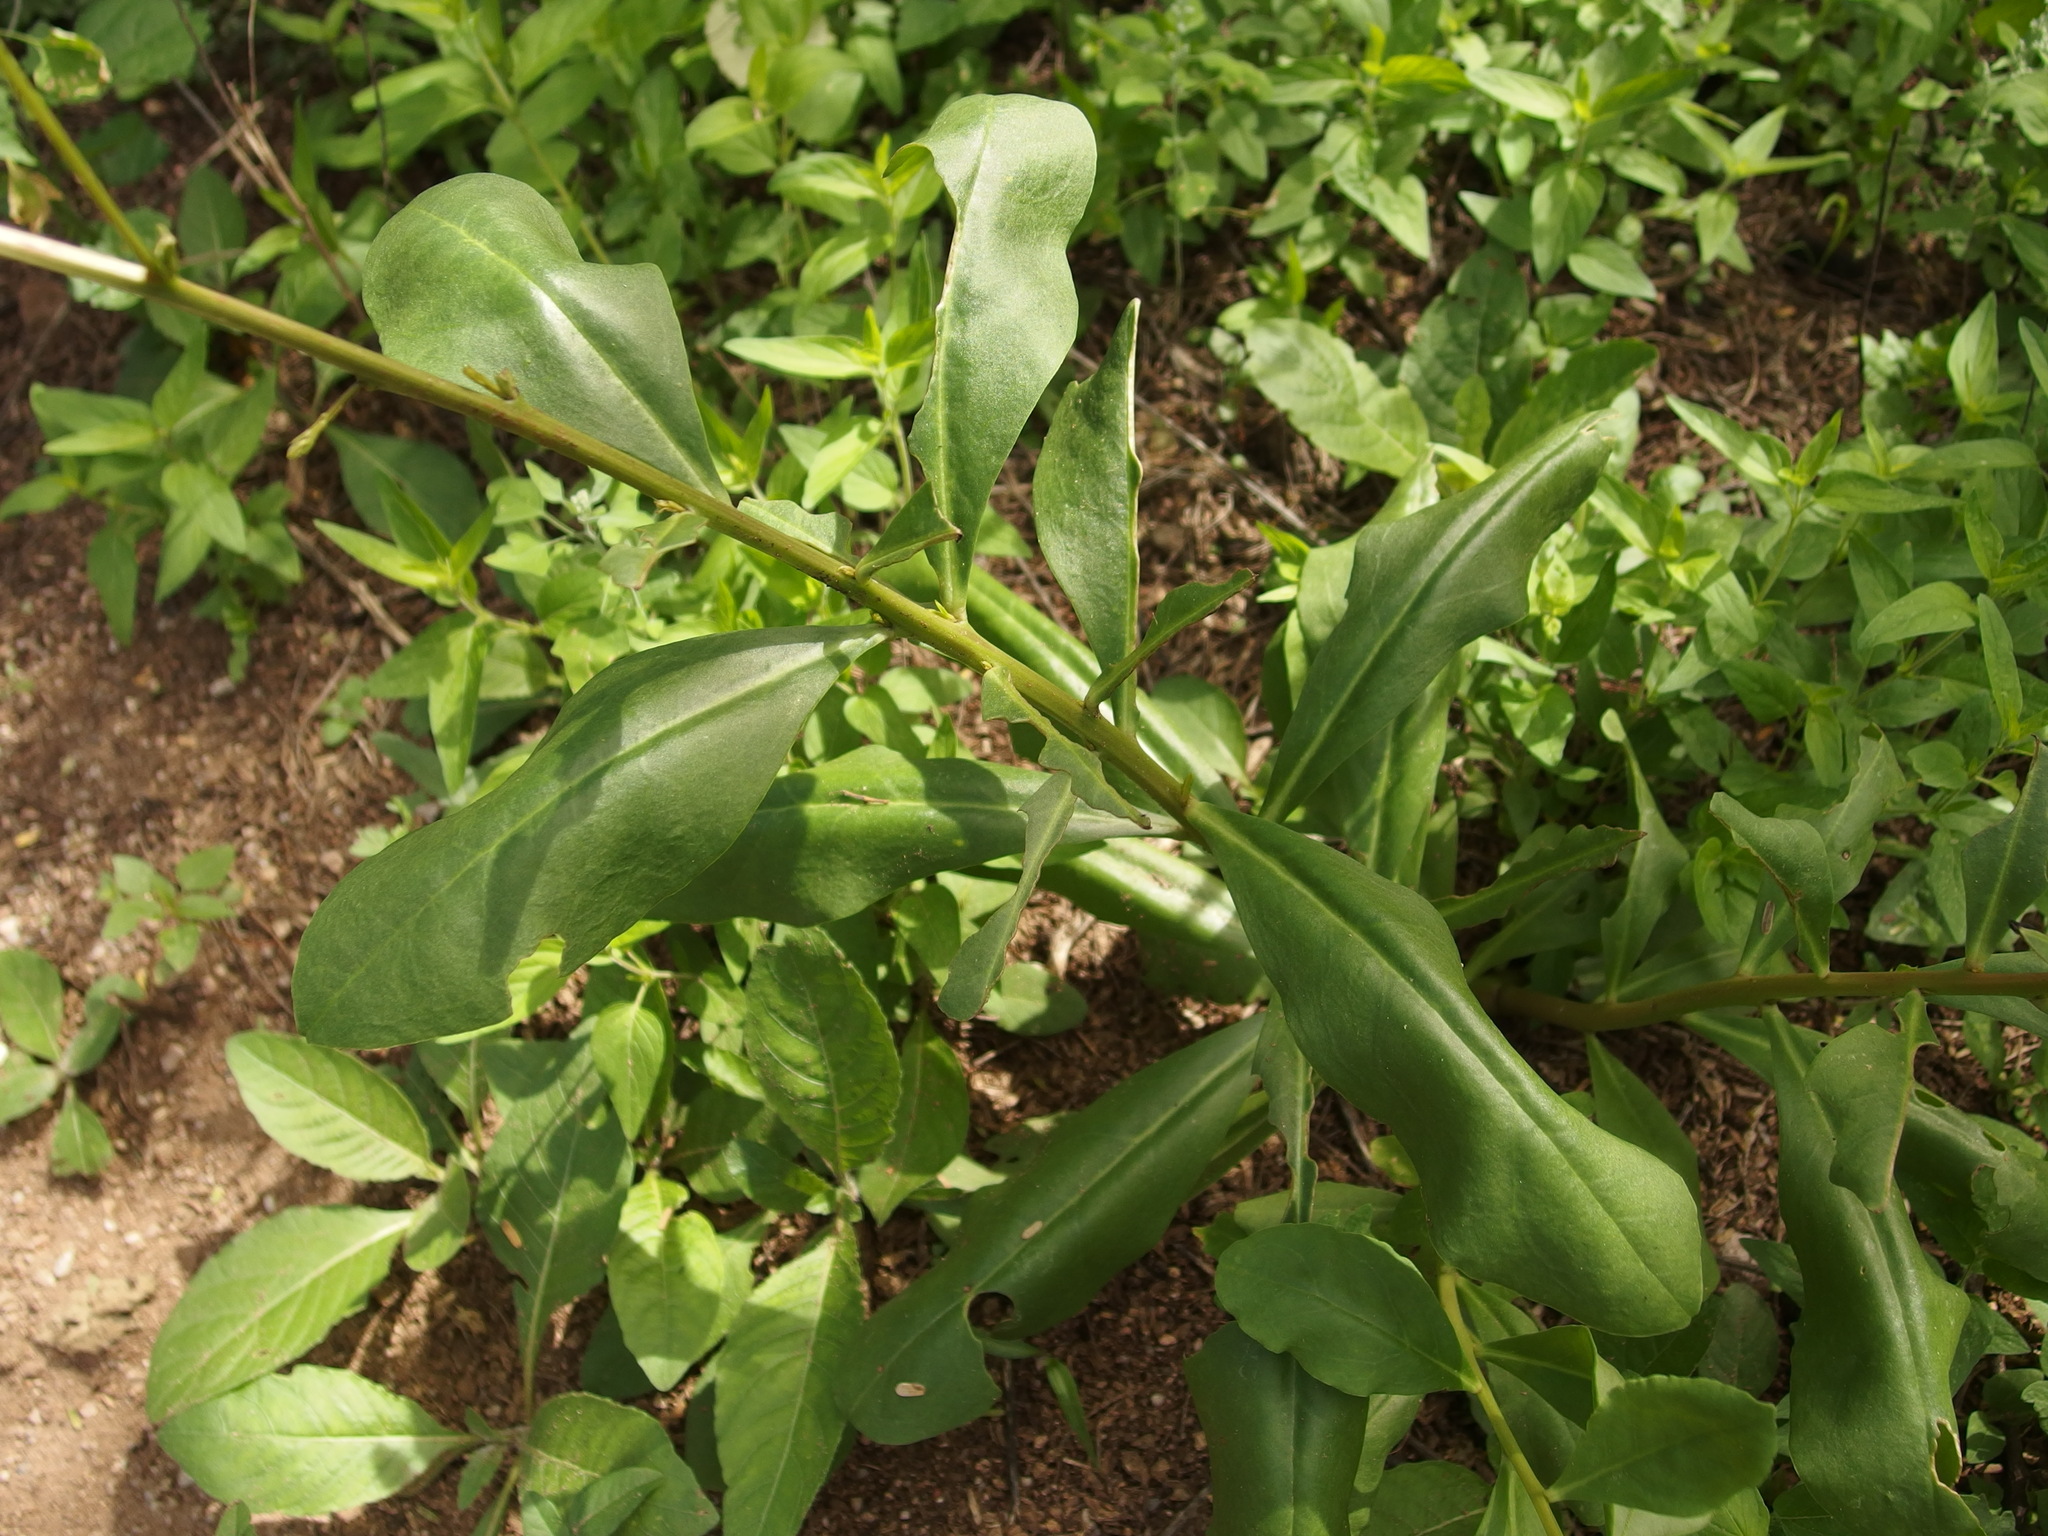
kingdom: Plantae
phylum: Tracheophyta
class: Magnoliopsida
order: Caryophyllales
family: Talinaceae
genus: Talinum
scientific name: Talinum paniculatum
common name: Jewels of opar
